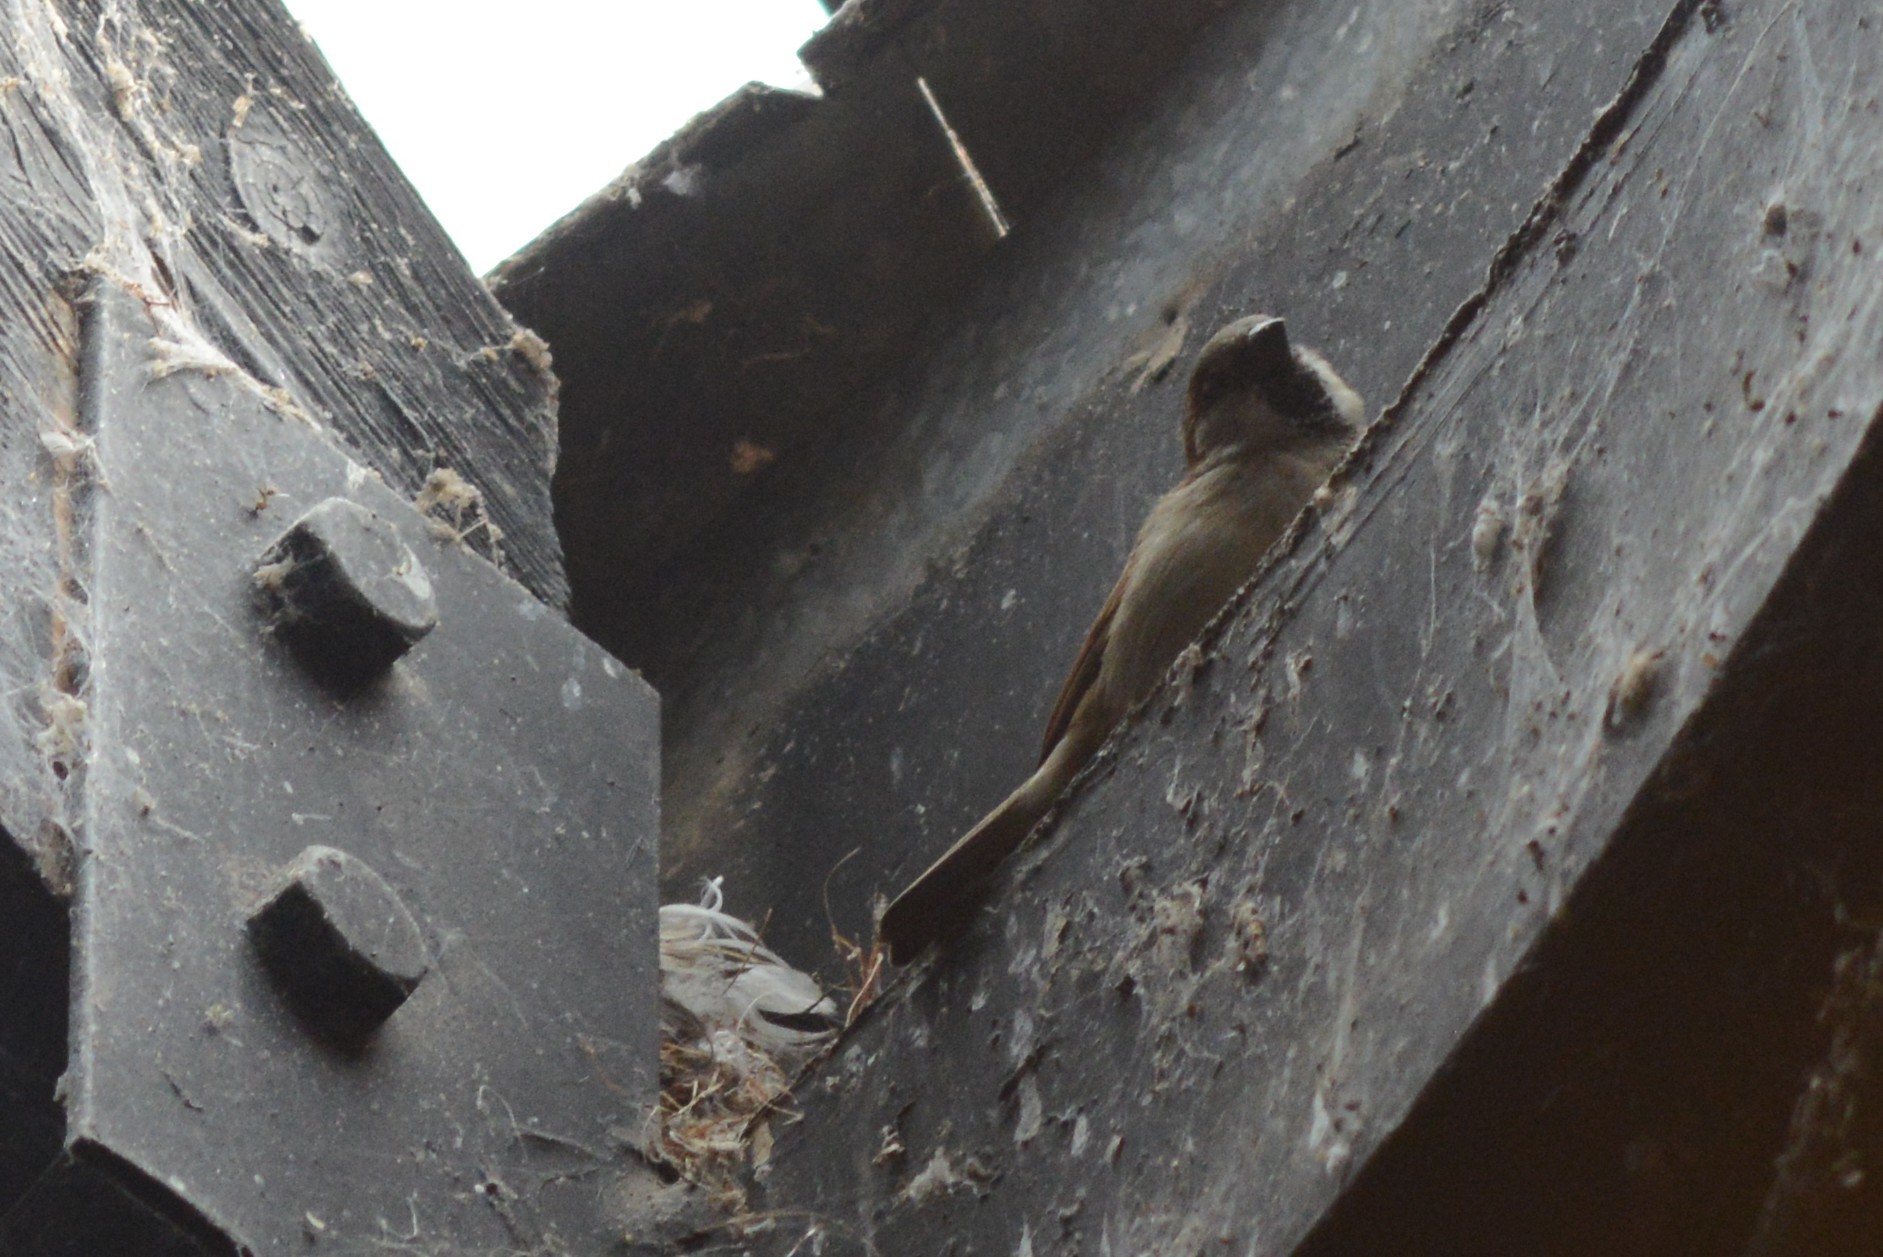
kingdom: Animalia
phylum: Chordata
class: Aves
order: Passeriformes
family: Passeridae
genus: Passer
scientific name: Passer domesticus
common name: House sparrow
